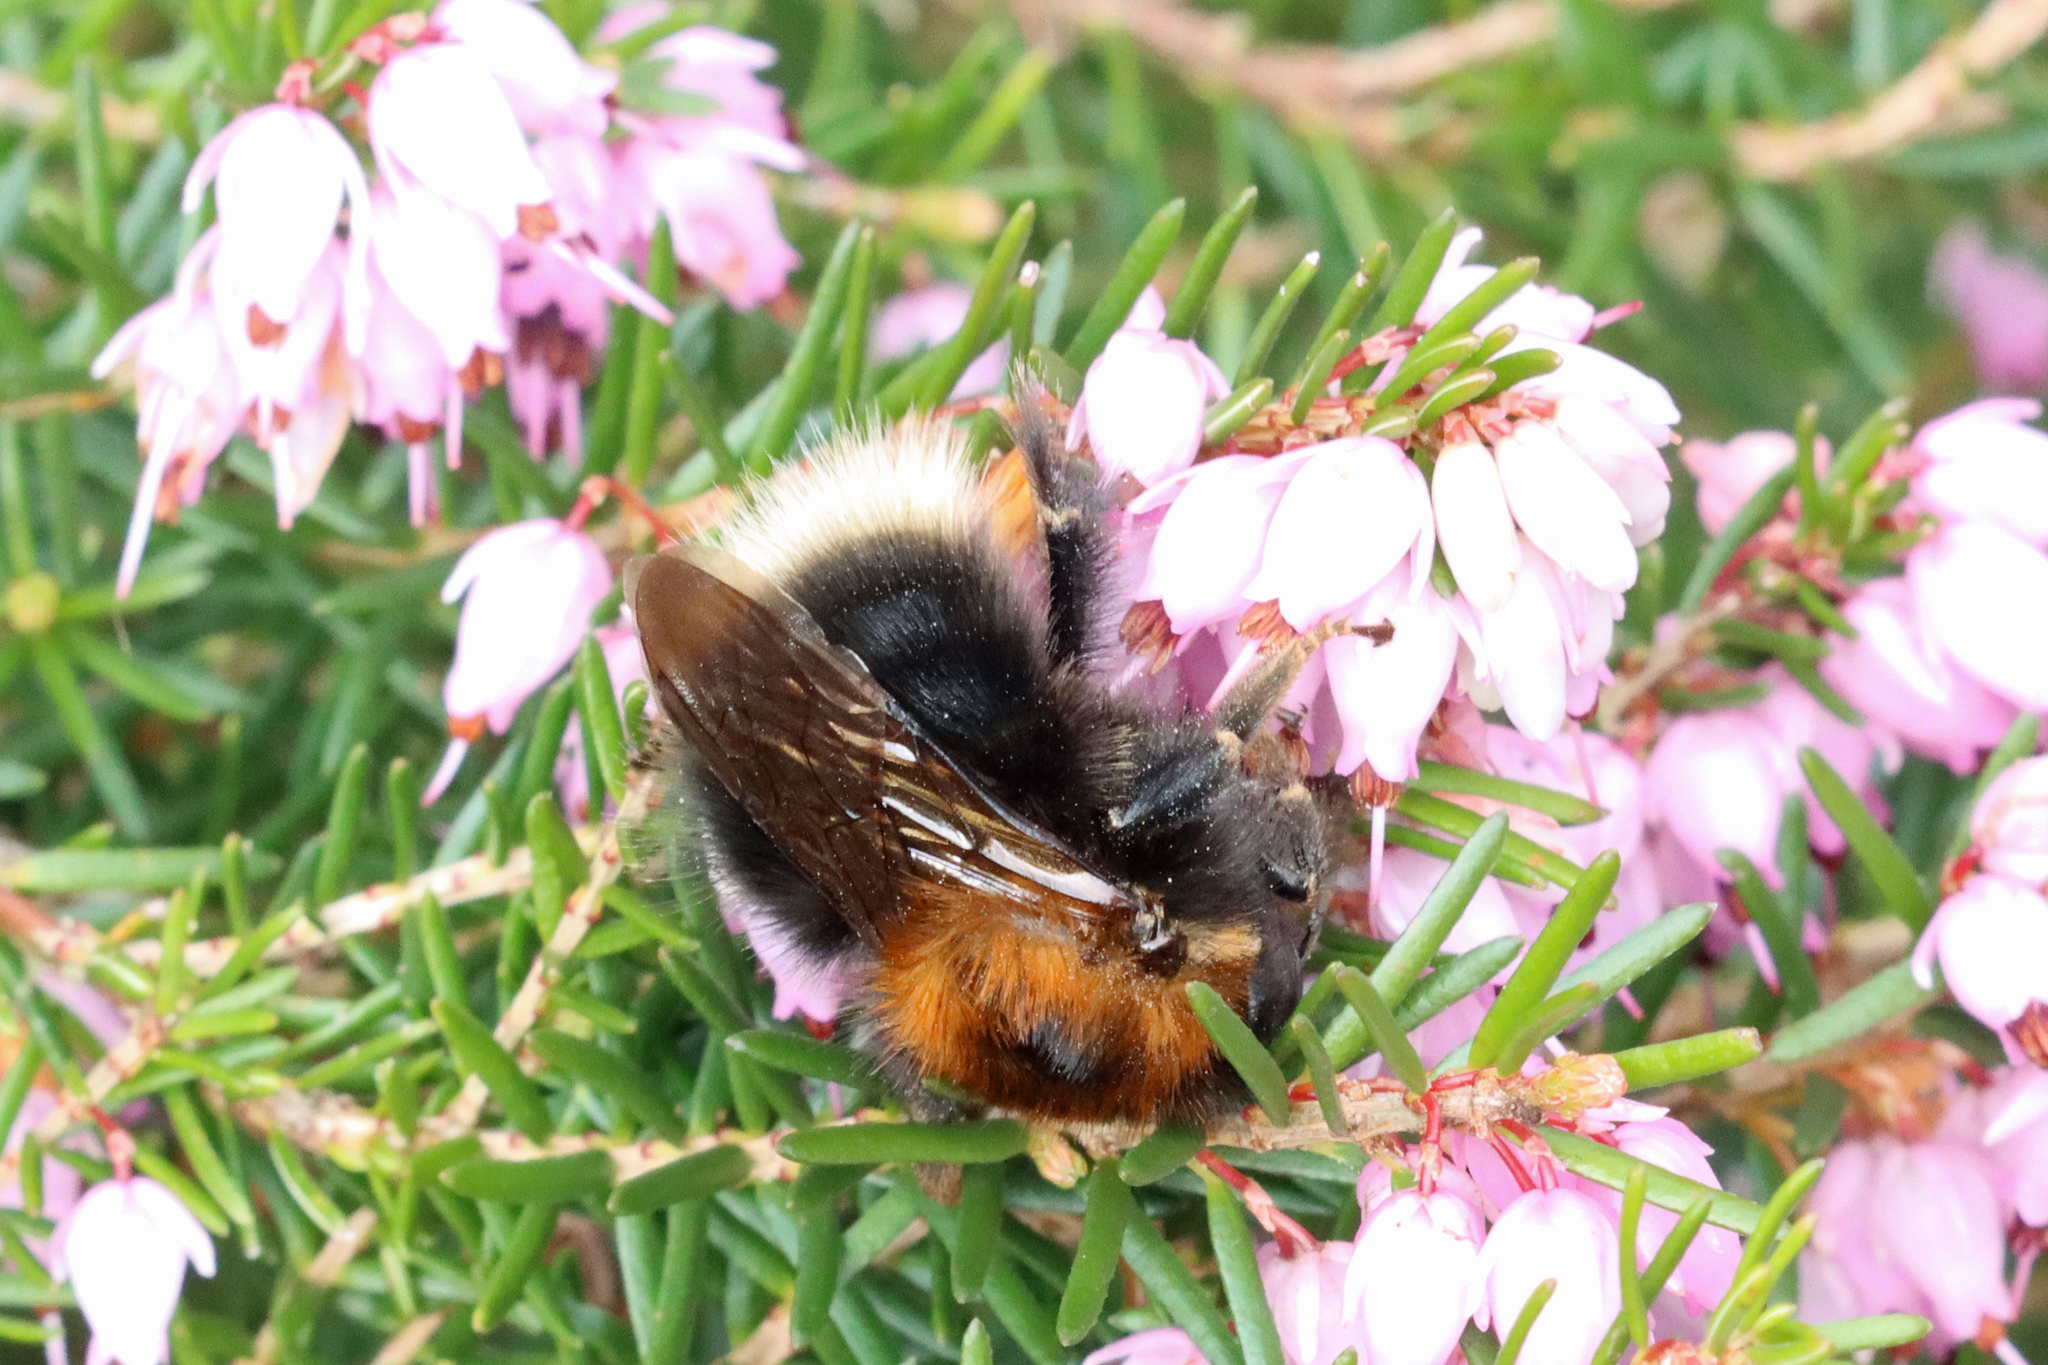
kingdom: Animalia
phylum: Arthropoda
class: Insecta
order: Hymenoptera
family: Apidae
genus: Bombus
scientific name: Bombus hypnorum
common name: New garden bumblebee
